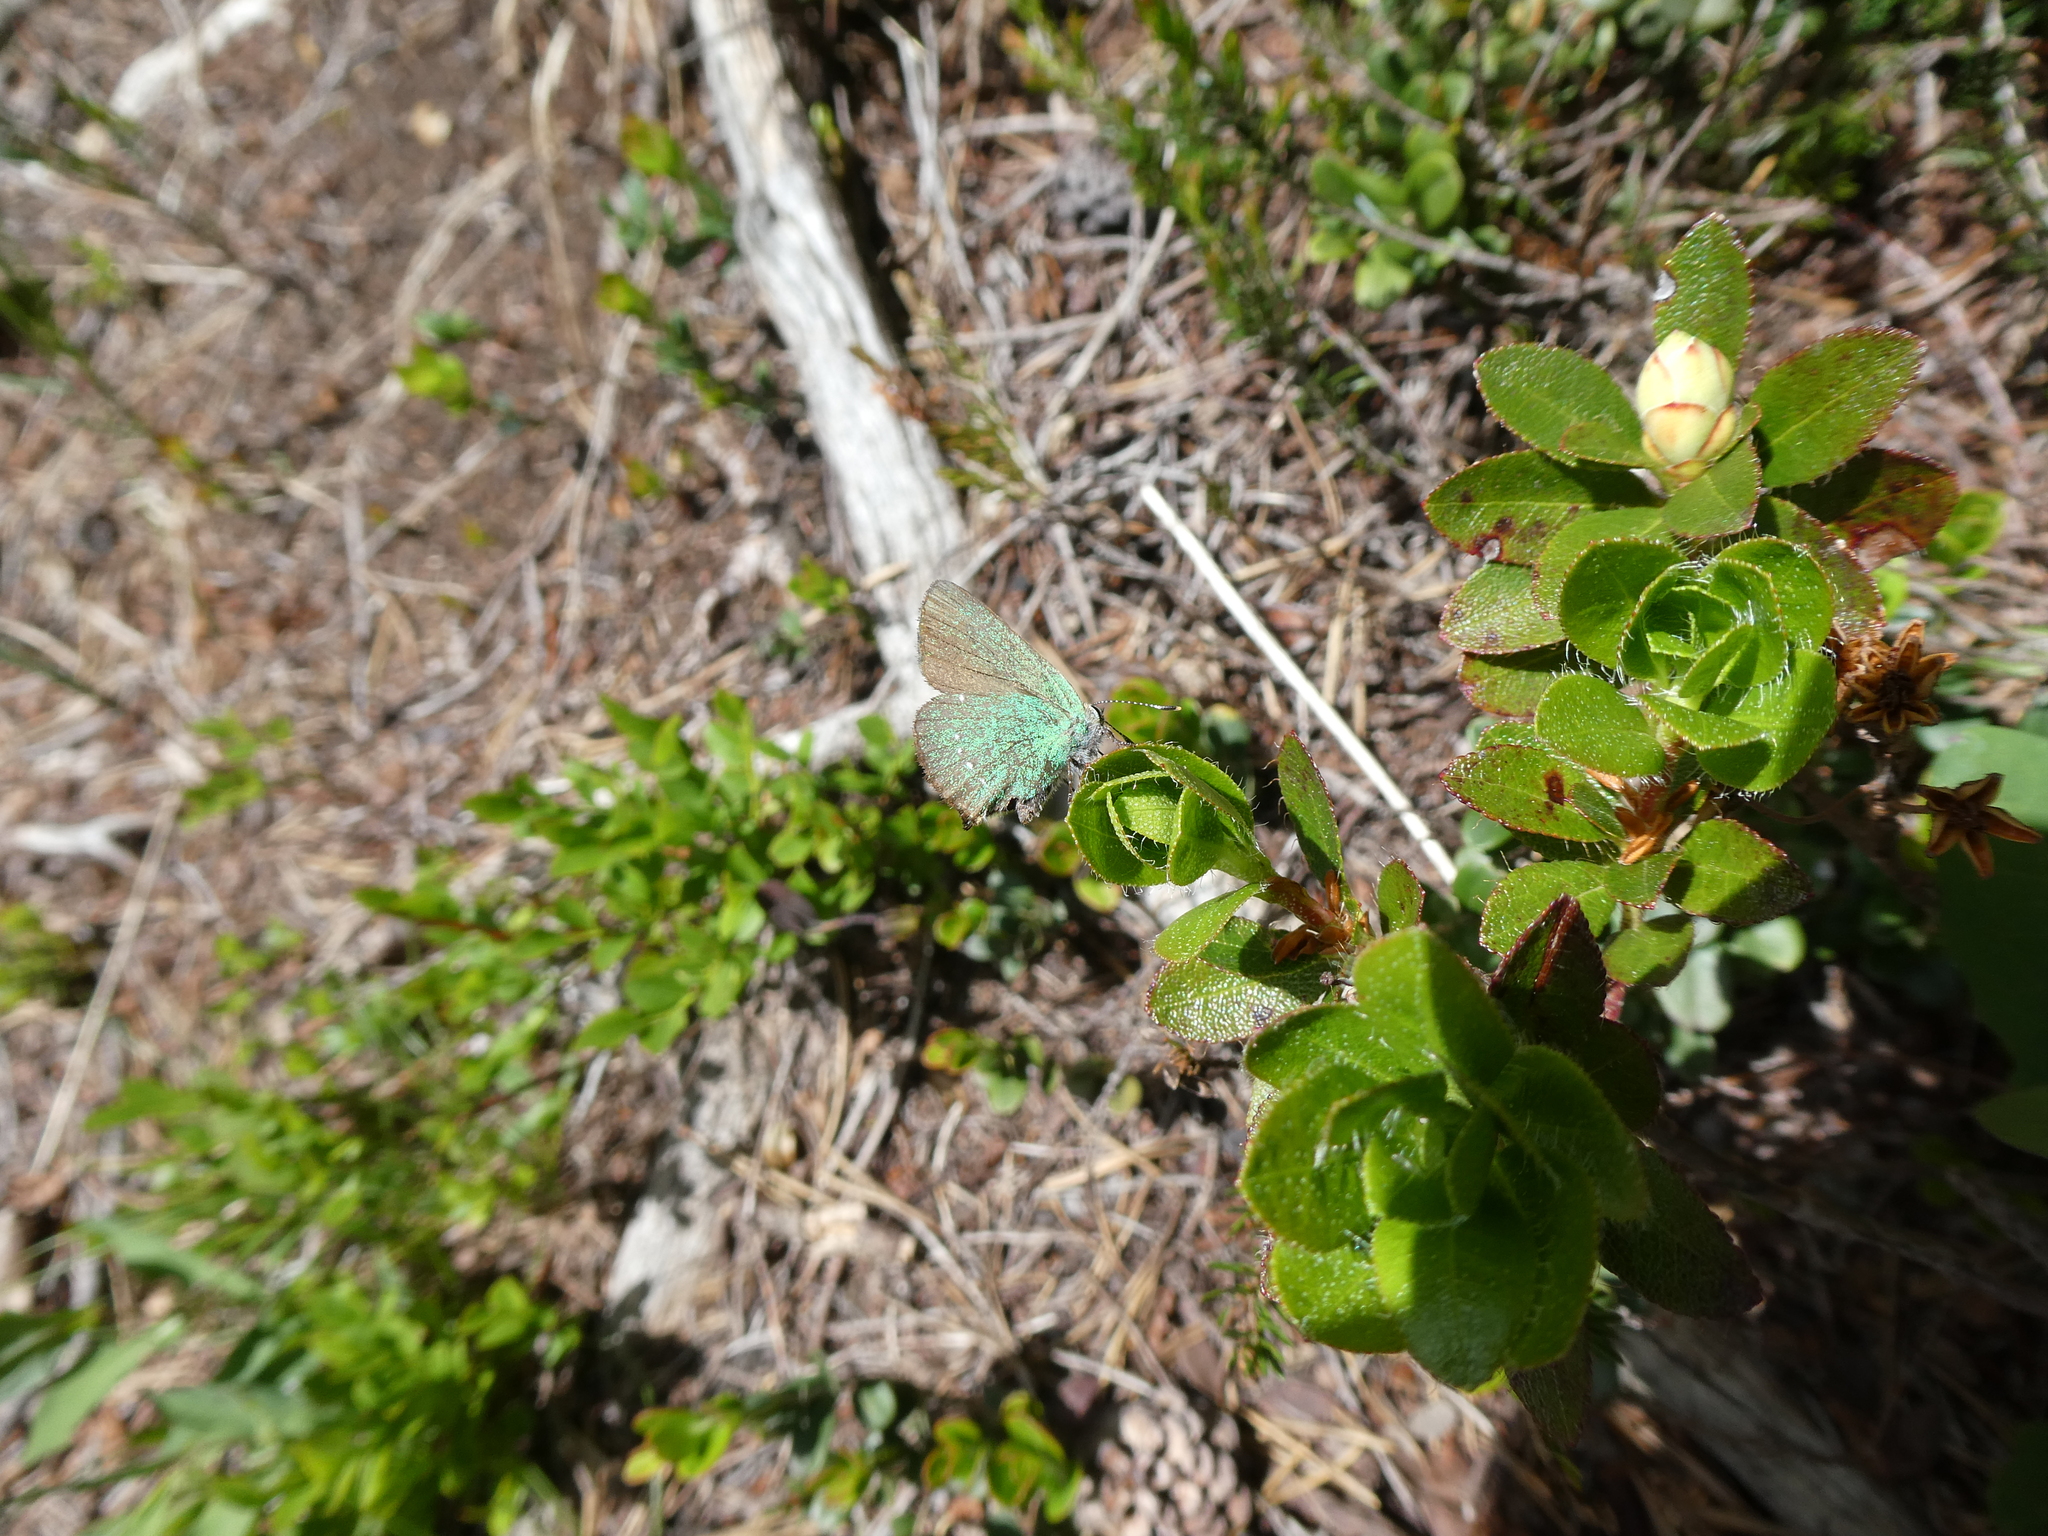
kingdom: Animalia
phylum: Arthropoda
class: Insecta
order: Lepidoptera
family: Lycaenidae
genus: Callophrys
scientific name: Callophrys rubi
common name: Green hairstreak
